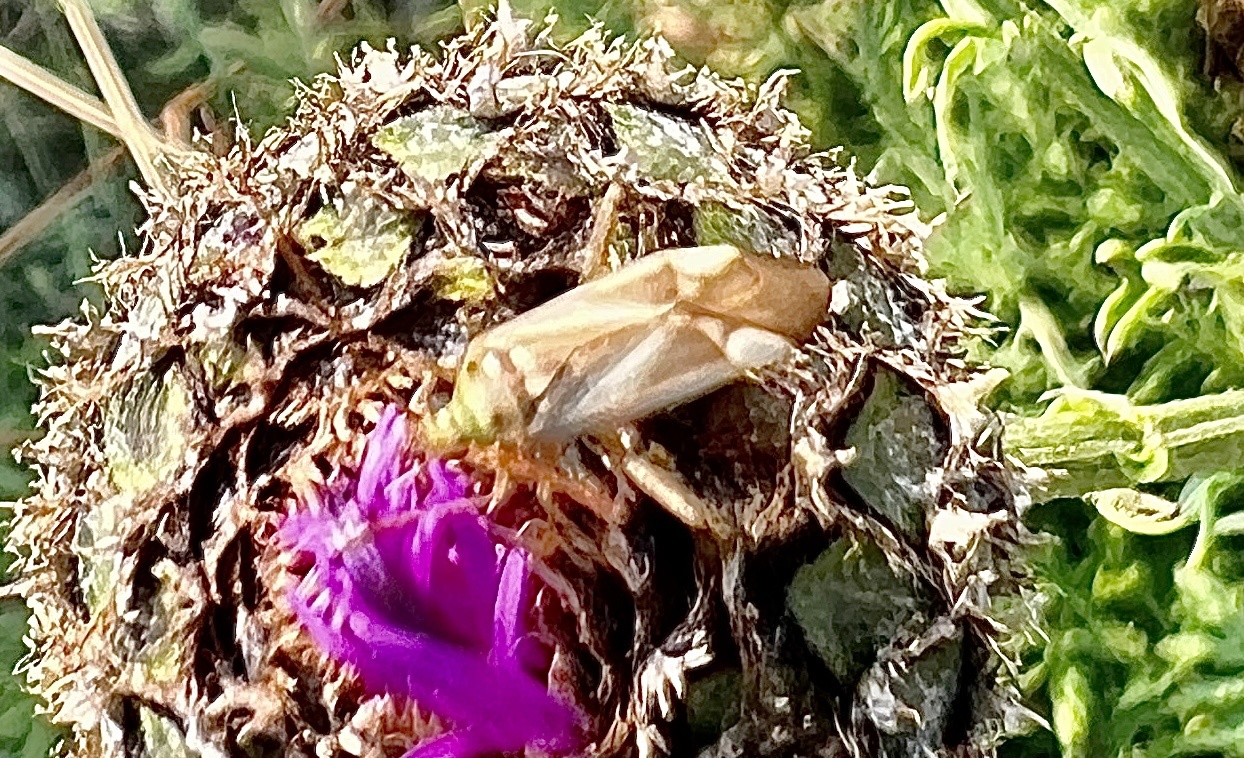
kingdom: Animalia
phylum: Arthropoda
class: Insecta
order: Hemiptera
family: Miridae
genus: Adelphocoris
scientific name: Adelphocoris lineolatus
